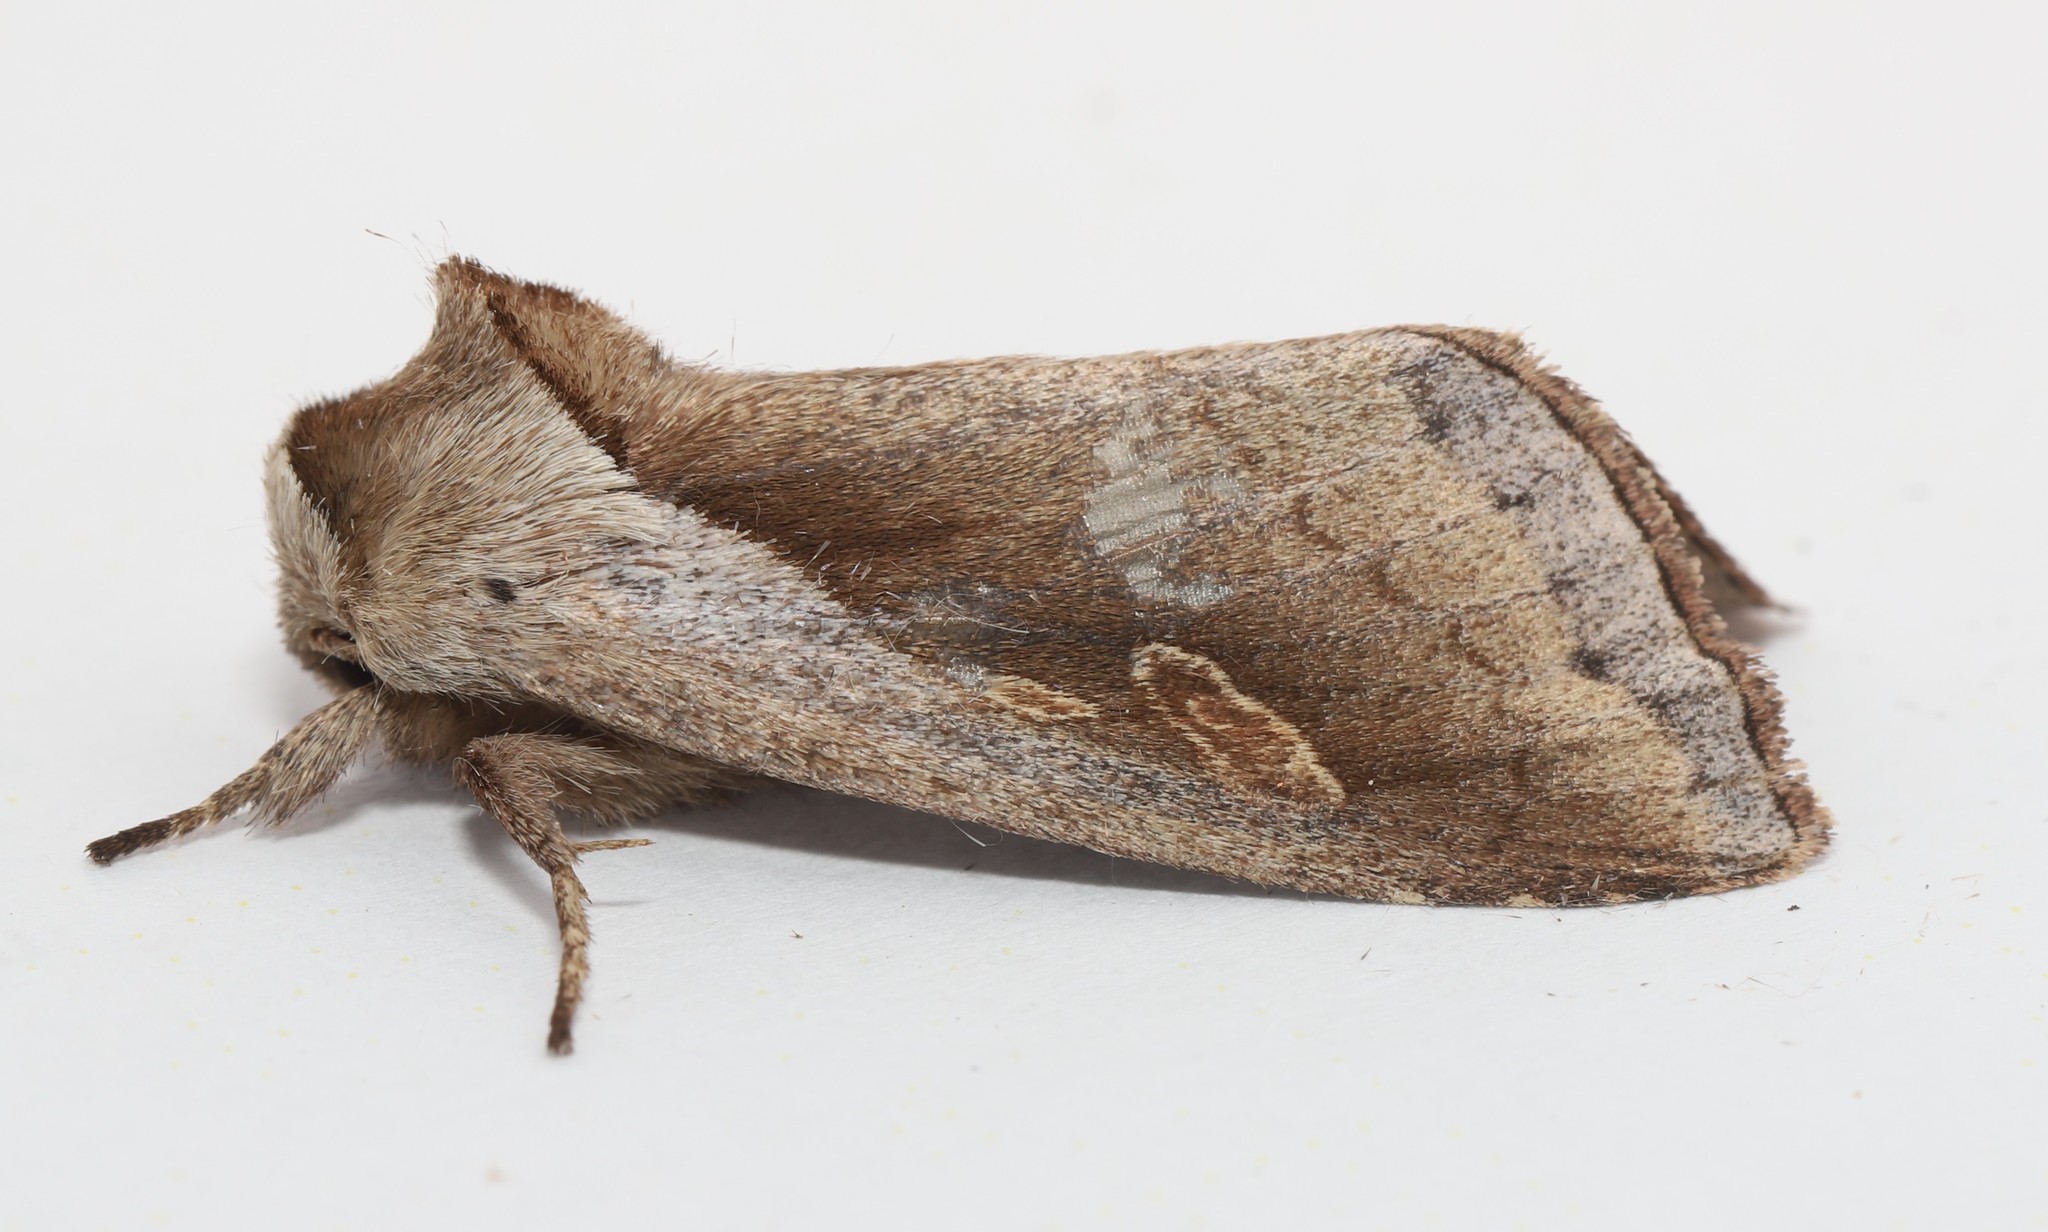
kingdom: Animalia
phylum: Arthropoda
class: Insecta
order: Lepidoptera
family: Noctuidae
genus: Bellura
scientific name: Bellura obliqua
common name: Cattail borer moth
